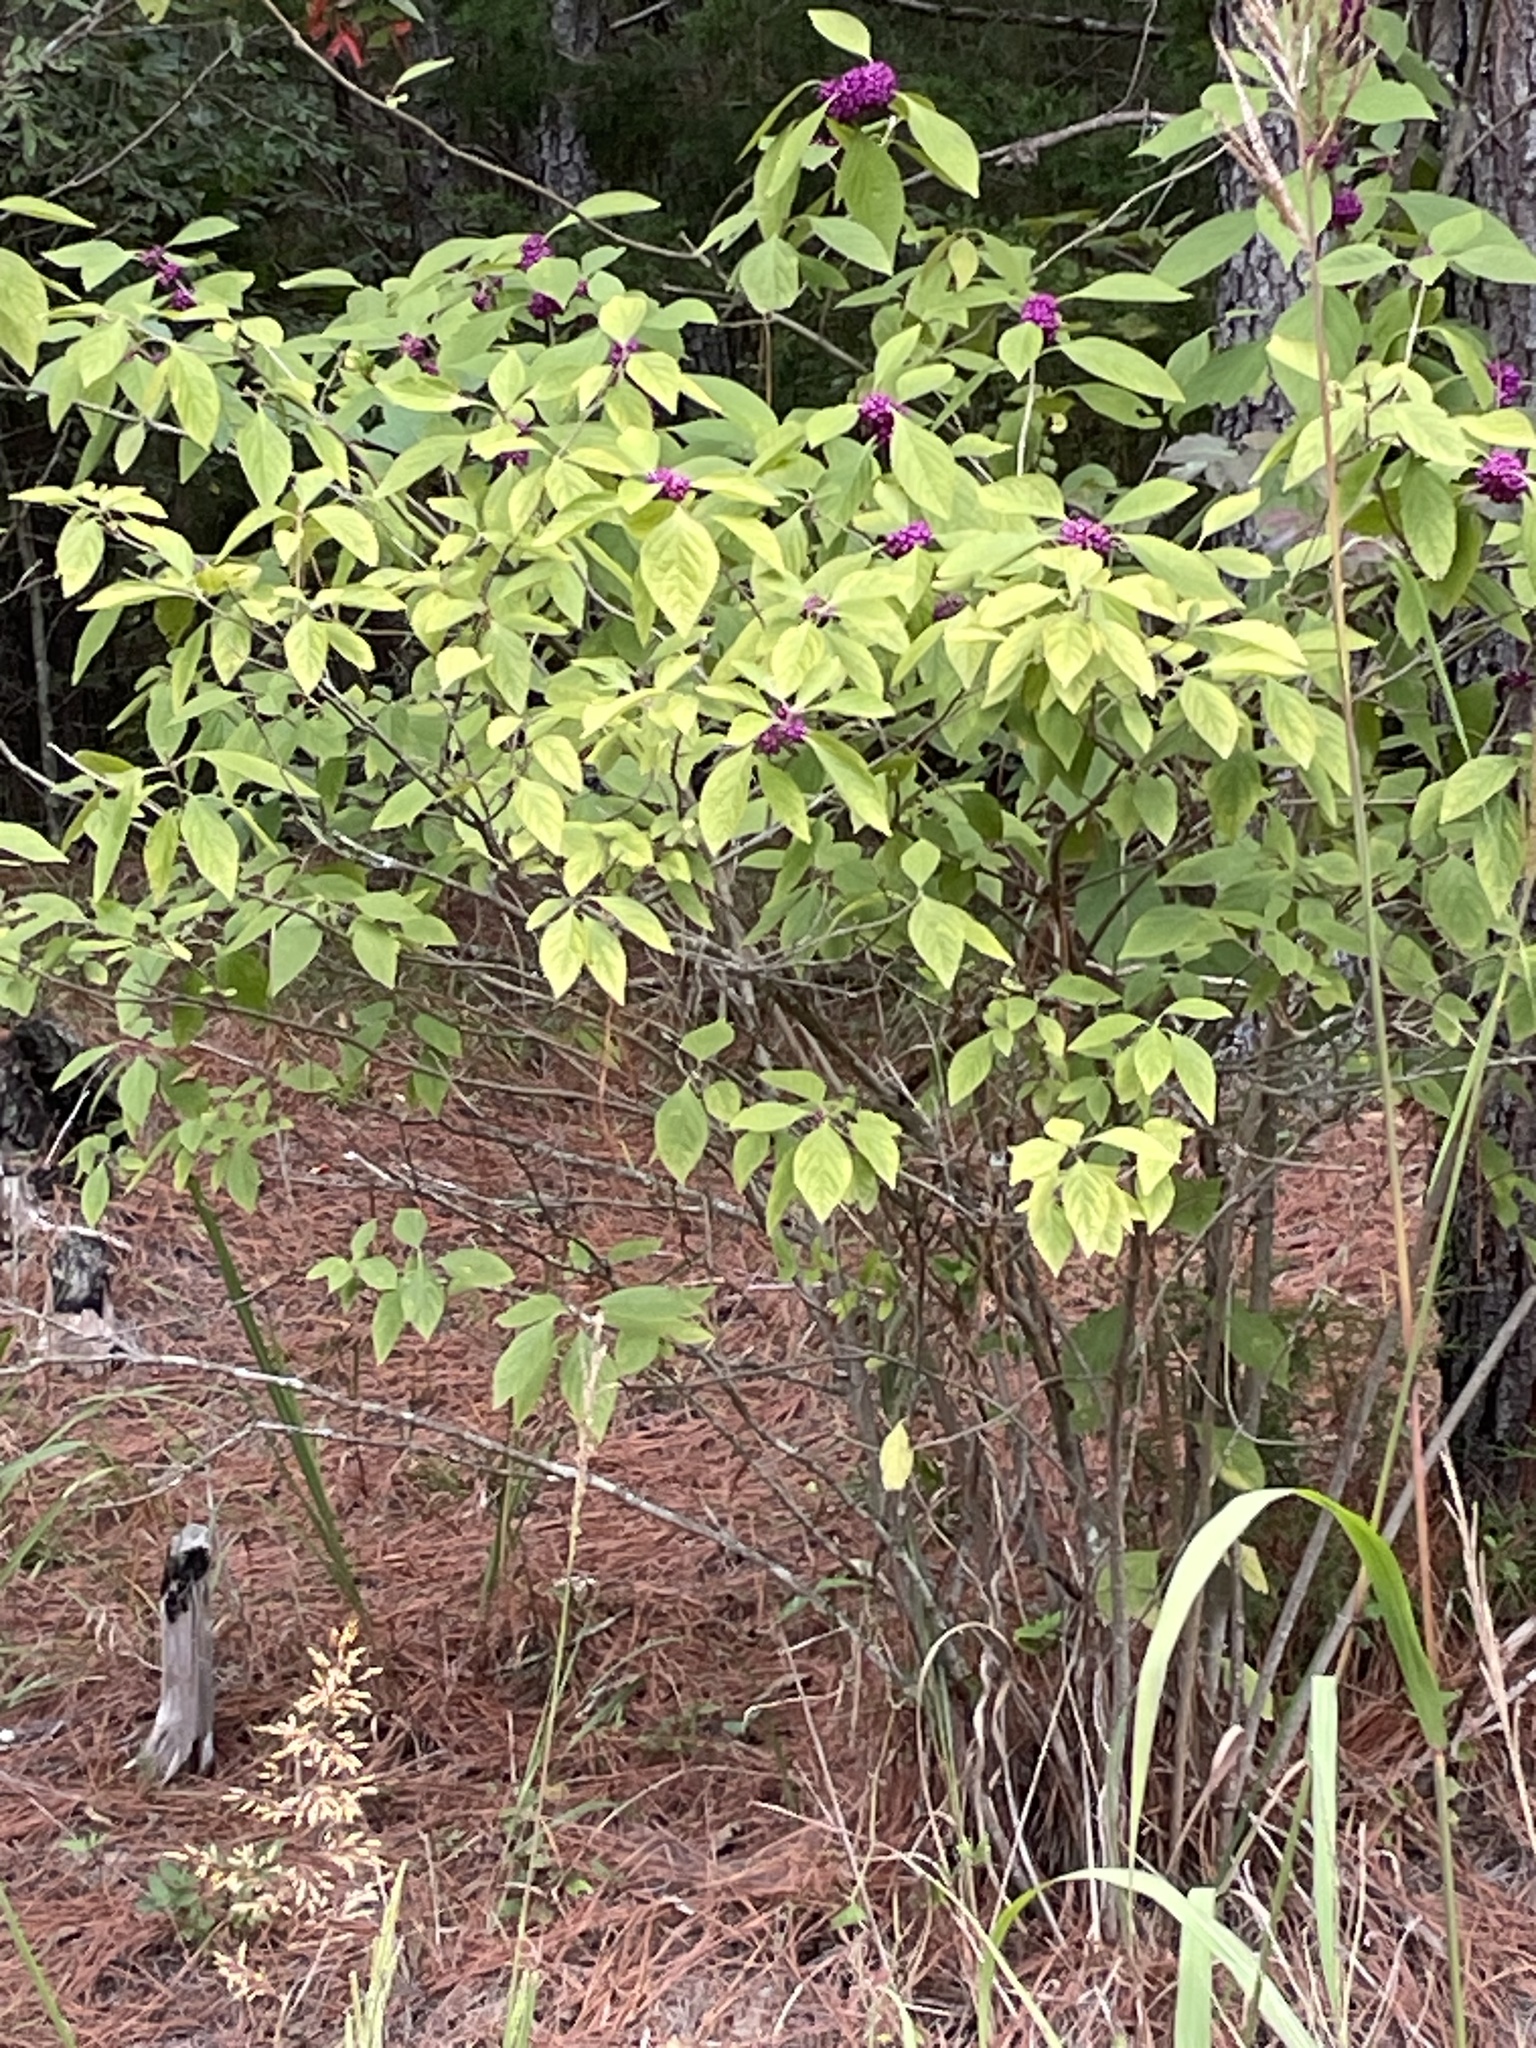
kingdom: Plantae
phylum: Tracheophyta
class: Magnoliopsida
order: Lamiales
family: Lamiaceae
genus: Callicarpa
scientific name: Callicarpa americana
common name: American beautyberry
